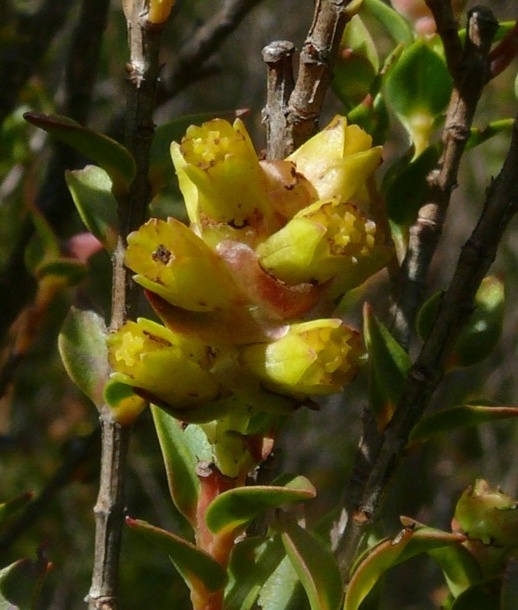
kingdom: Plantae
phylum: Tracheophyta
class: Magnoliopsida
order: Myrtales
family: Penaeaceae
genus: Penaea
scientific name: Penaea cneorum
